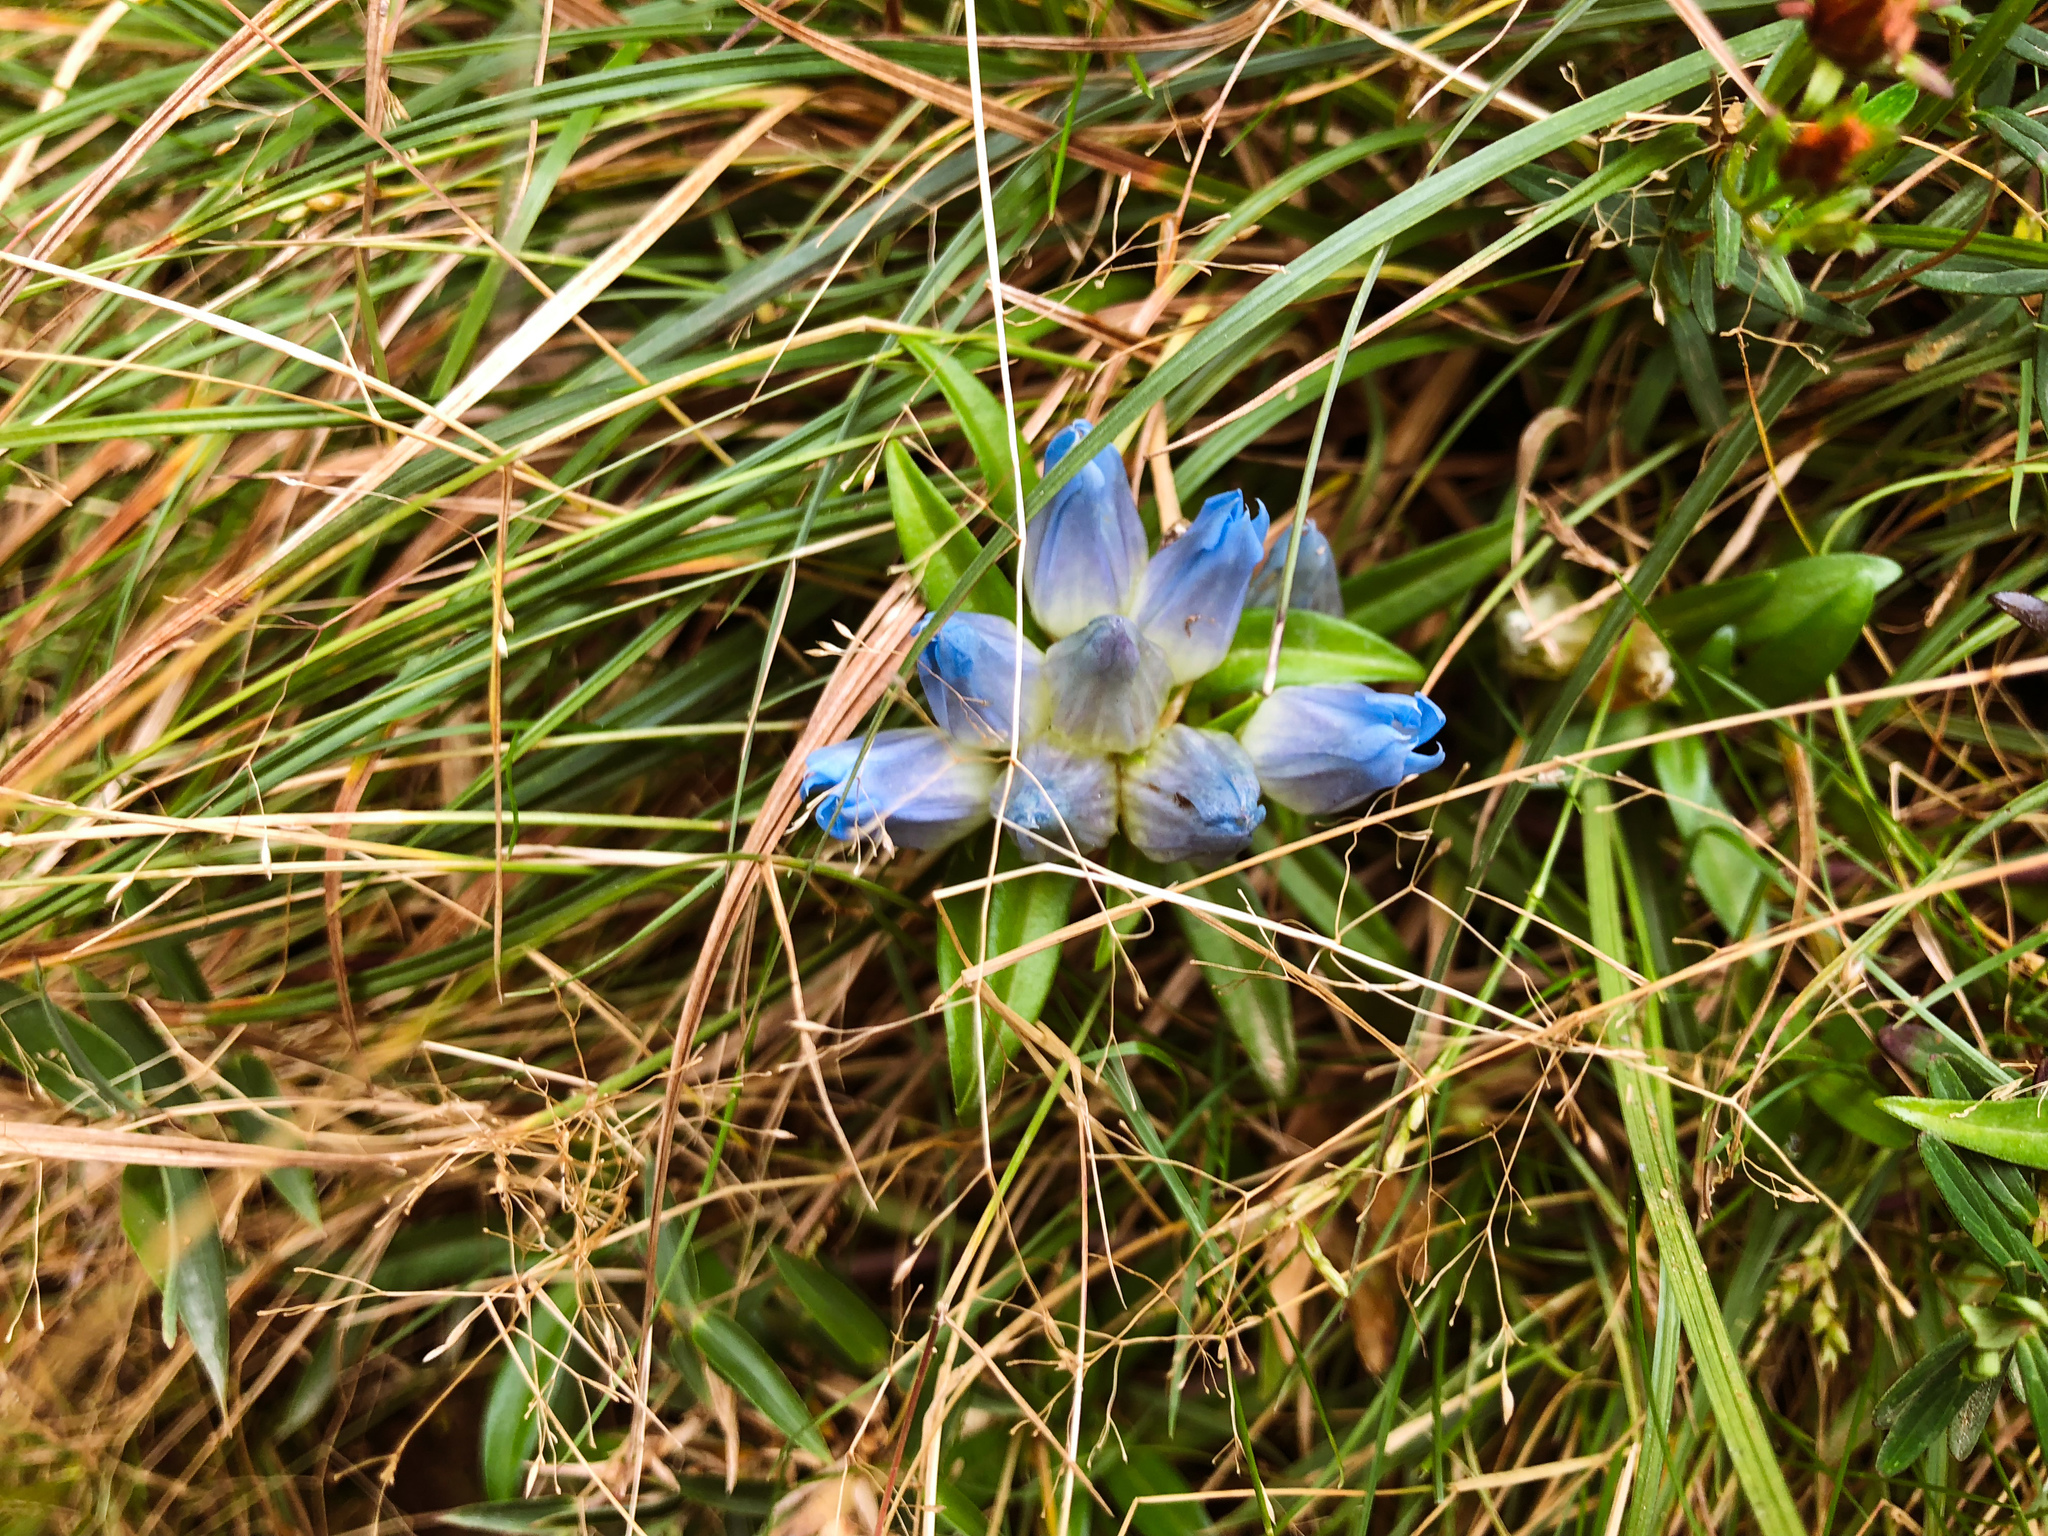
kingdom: Plantae
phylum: Tracheophyta
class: Magnoliopsida
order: Gentianales
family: Gentianaceae
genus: Gentiana
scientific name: Gentiana davidii
